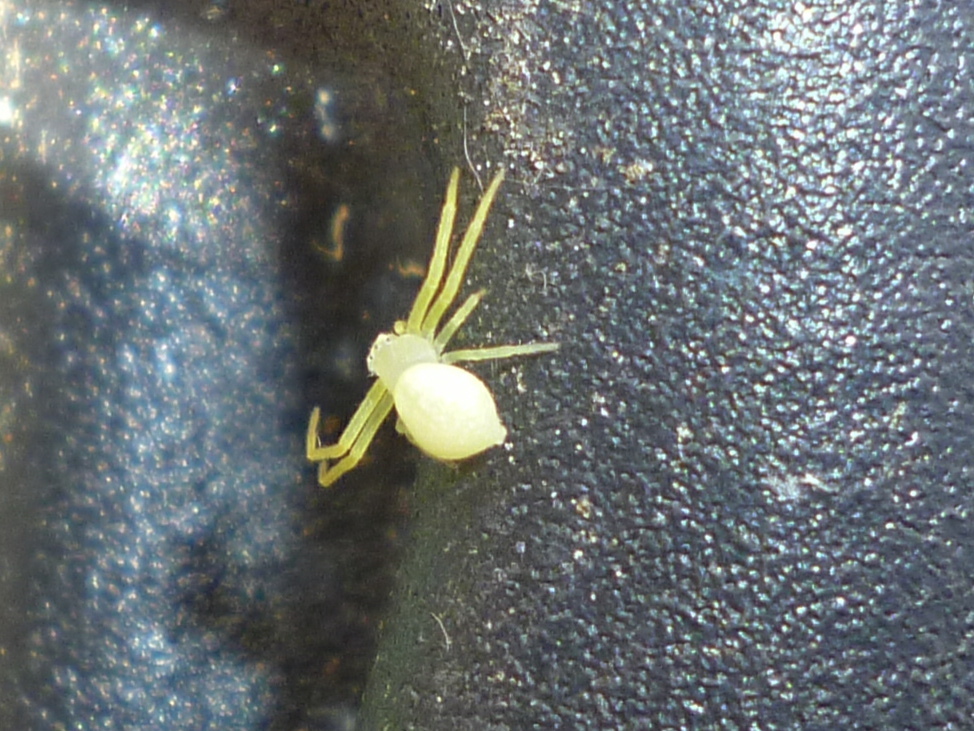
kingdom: Animalia
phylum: Arthropoda
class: Arachnida
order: Araneae
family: Thomisidae
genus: Misumessus
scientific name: Misumessus oblongus
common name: American green crab spider
